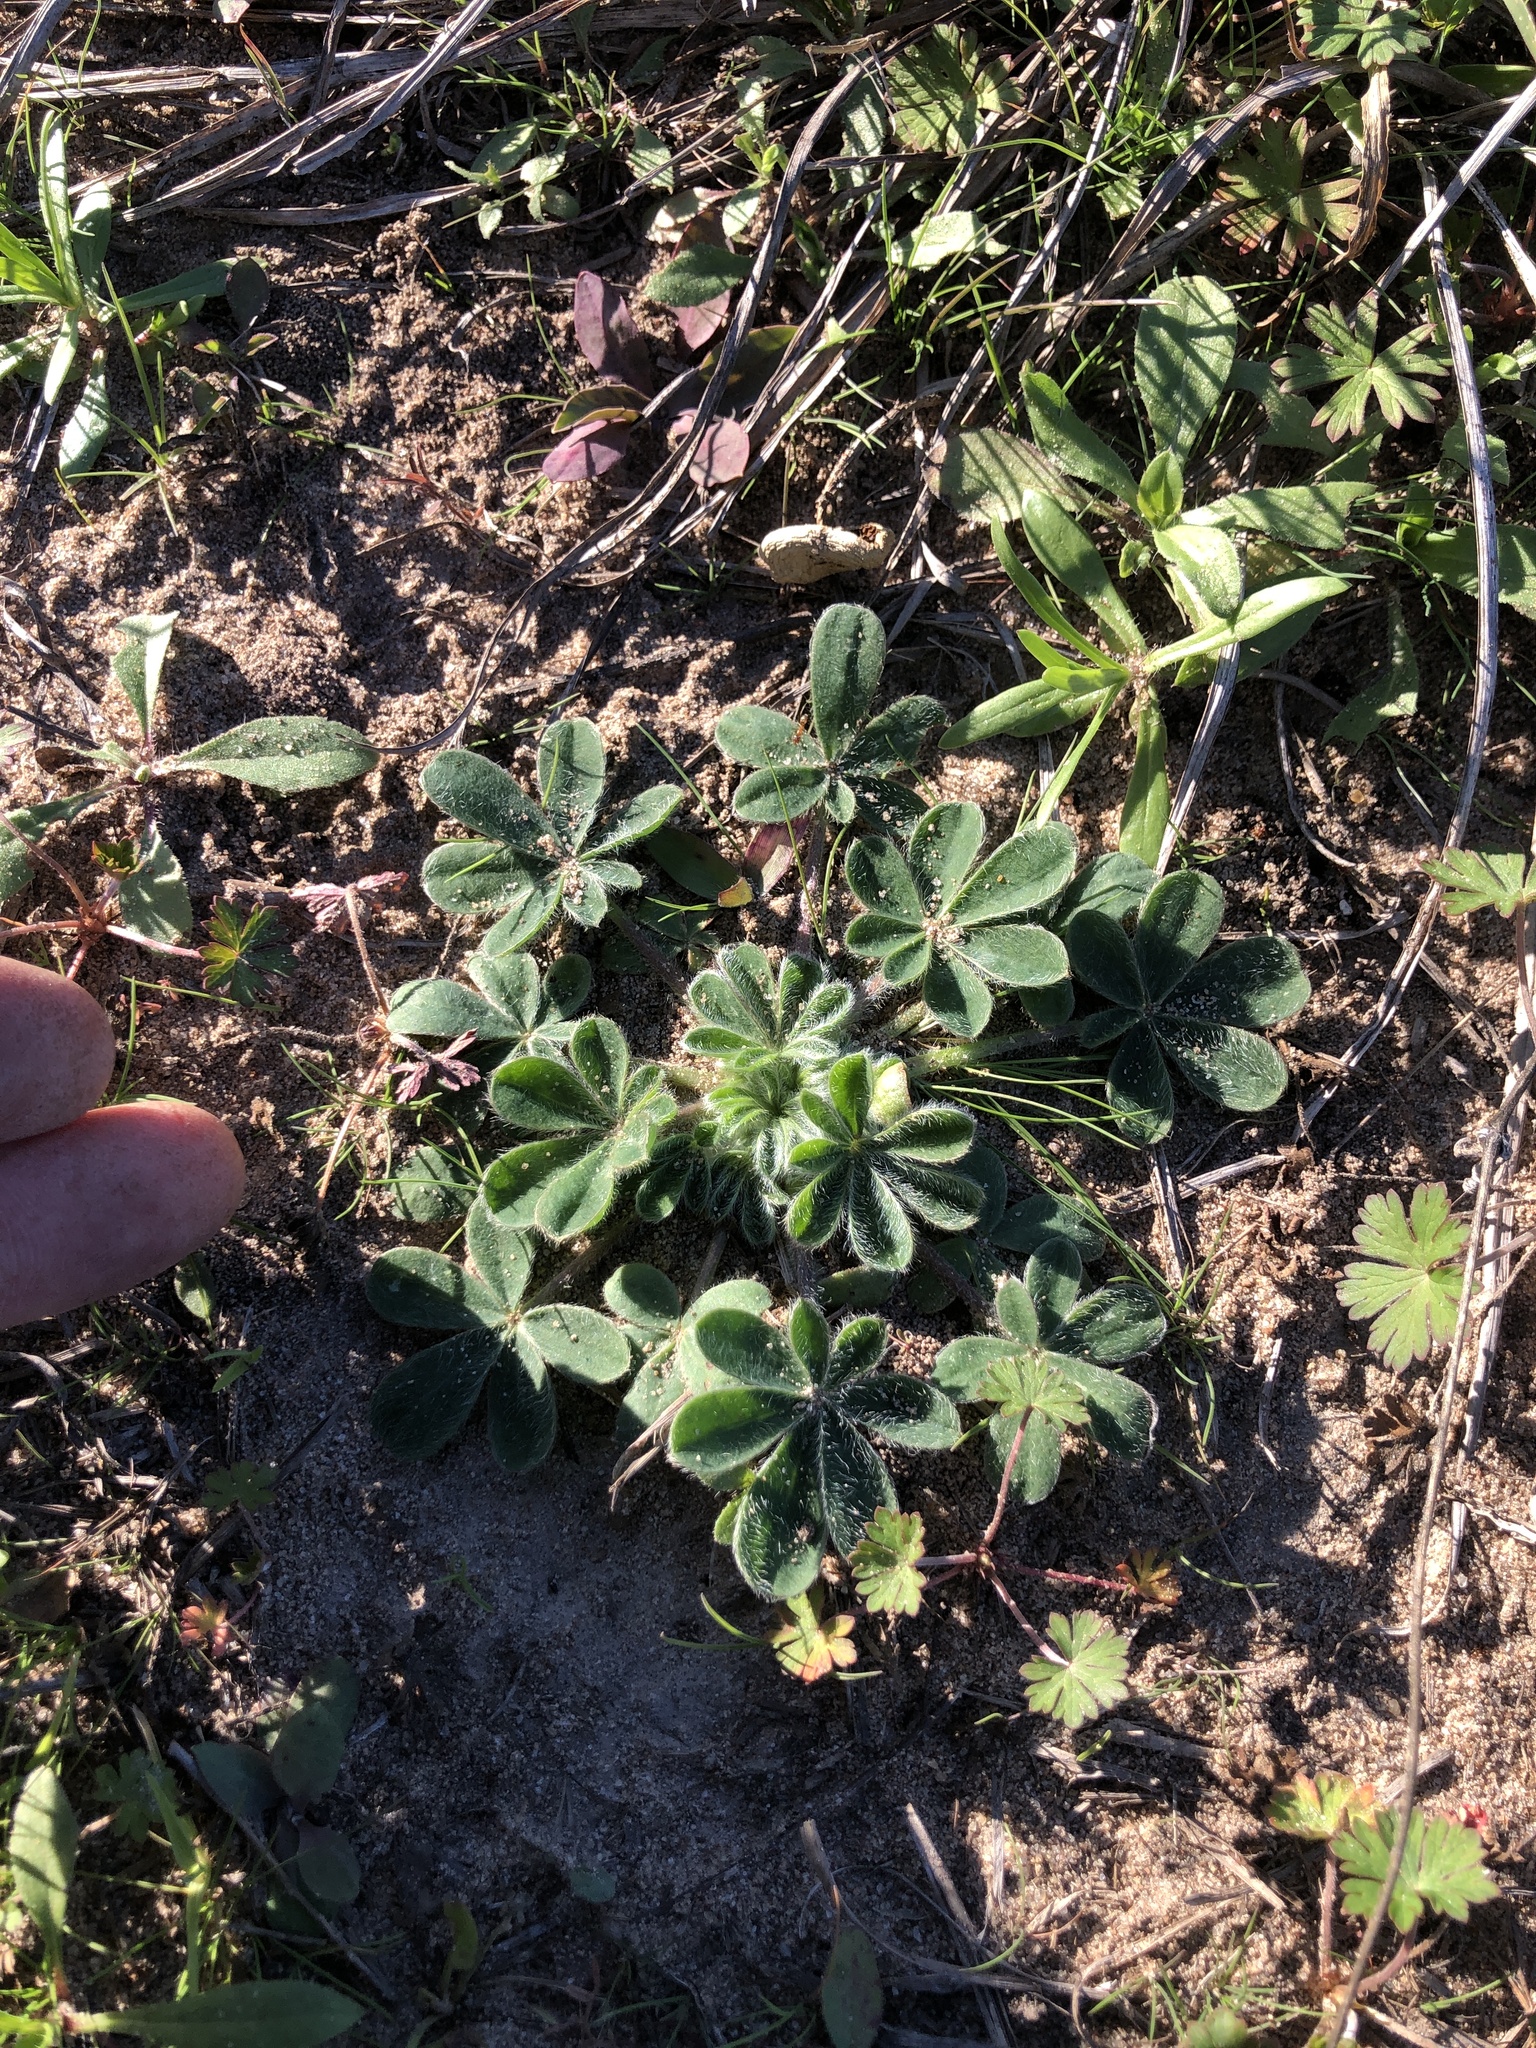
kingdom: Plantae
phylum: Tracheophyta
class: Magnoliopsida
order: Fabales
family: Fabaceae
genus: Lupinus
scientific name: Lupinus subcarnosus
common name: Texas bluebonnet
